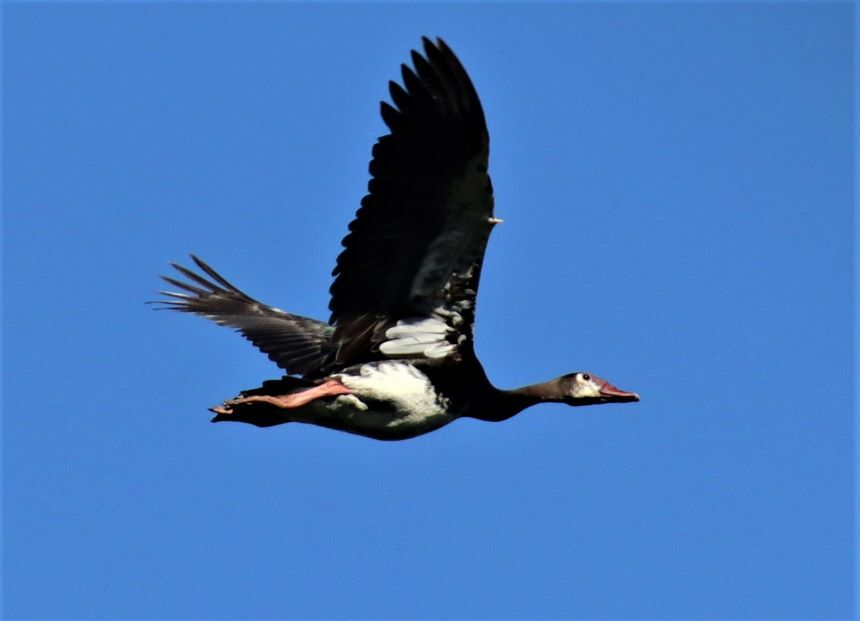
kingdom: Animalia
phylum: Chordata
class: Aves
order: Anseriformes
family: Anatidae
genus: Plectropterus
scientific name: Plectropterus gambensis
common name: Spur-winged goose
